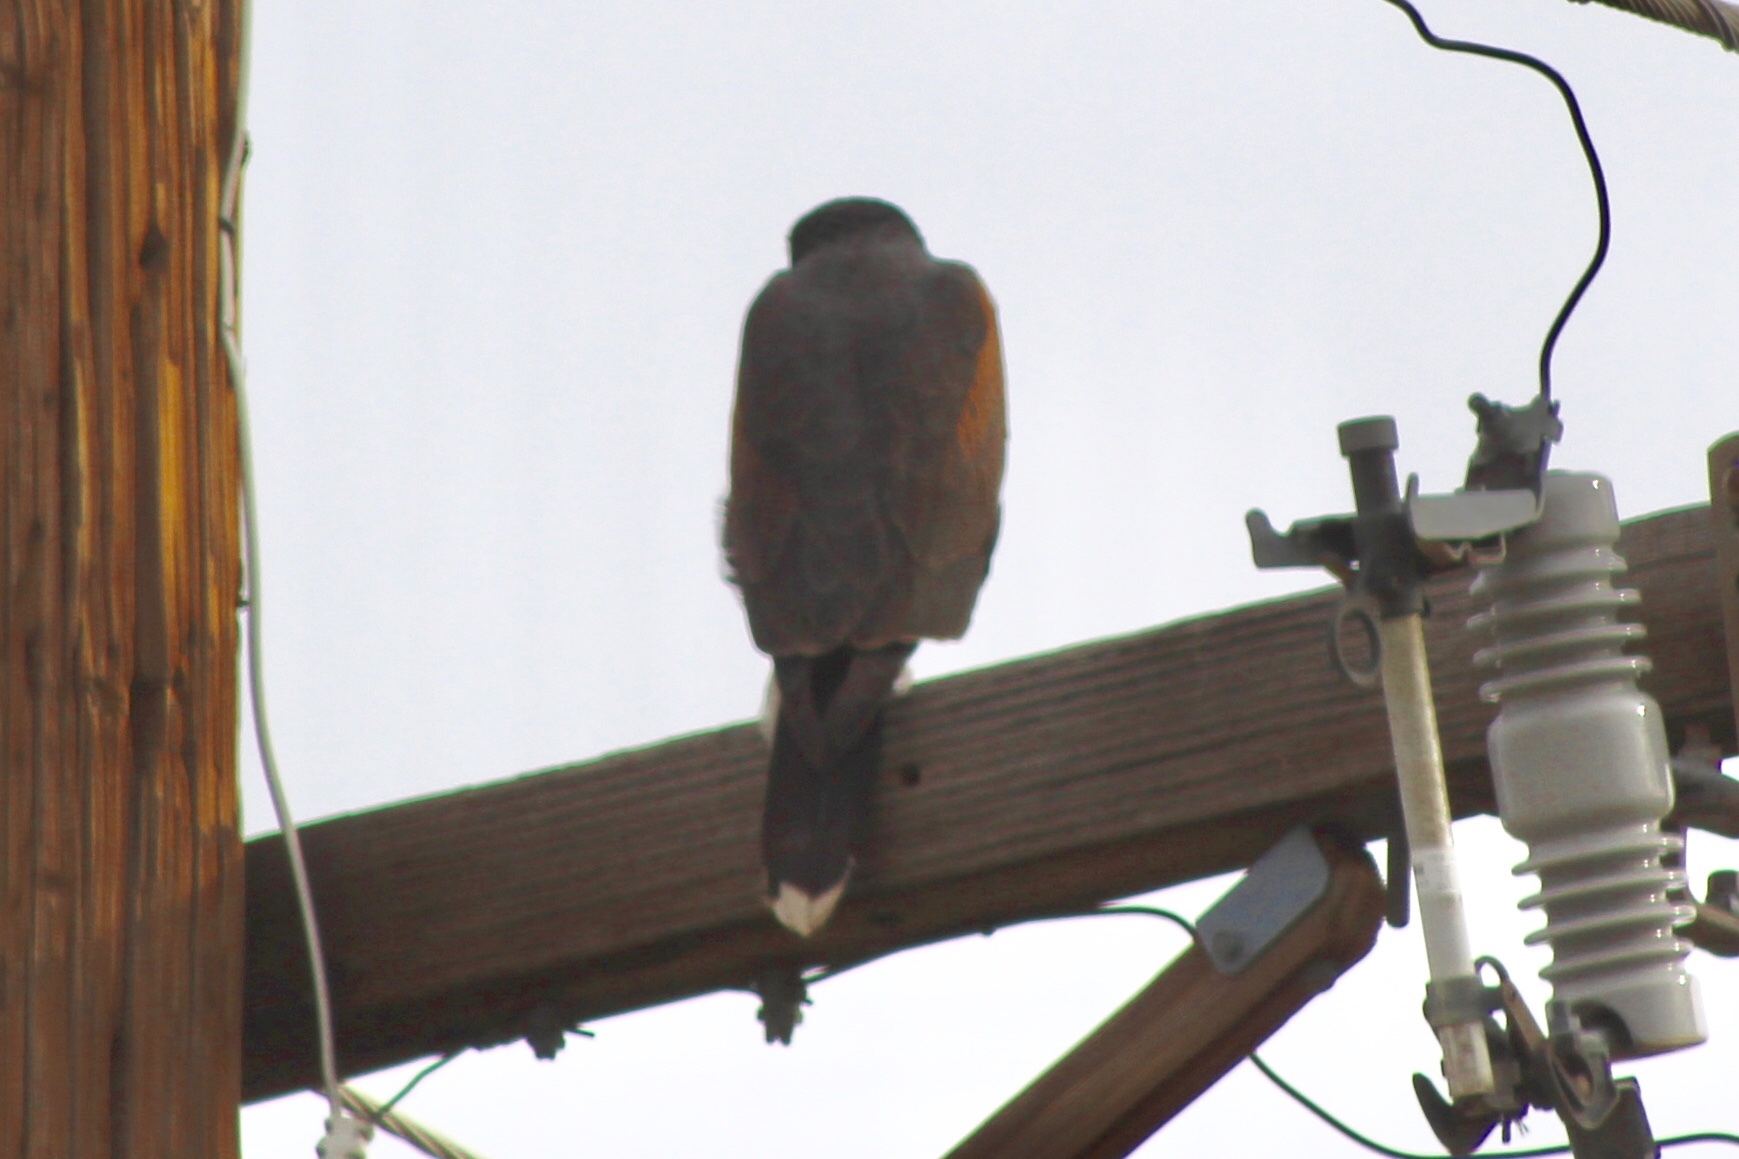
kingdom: Animalia
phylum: Chordata
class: Aves
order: Accipitriformes
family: Accipitridae
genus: Parabuteo
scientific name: Parabuteo unicinctus
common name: Harris's hawk
